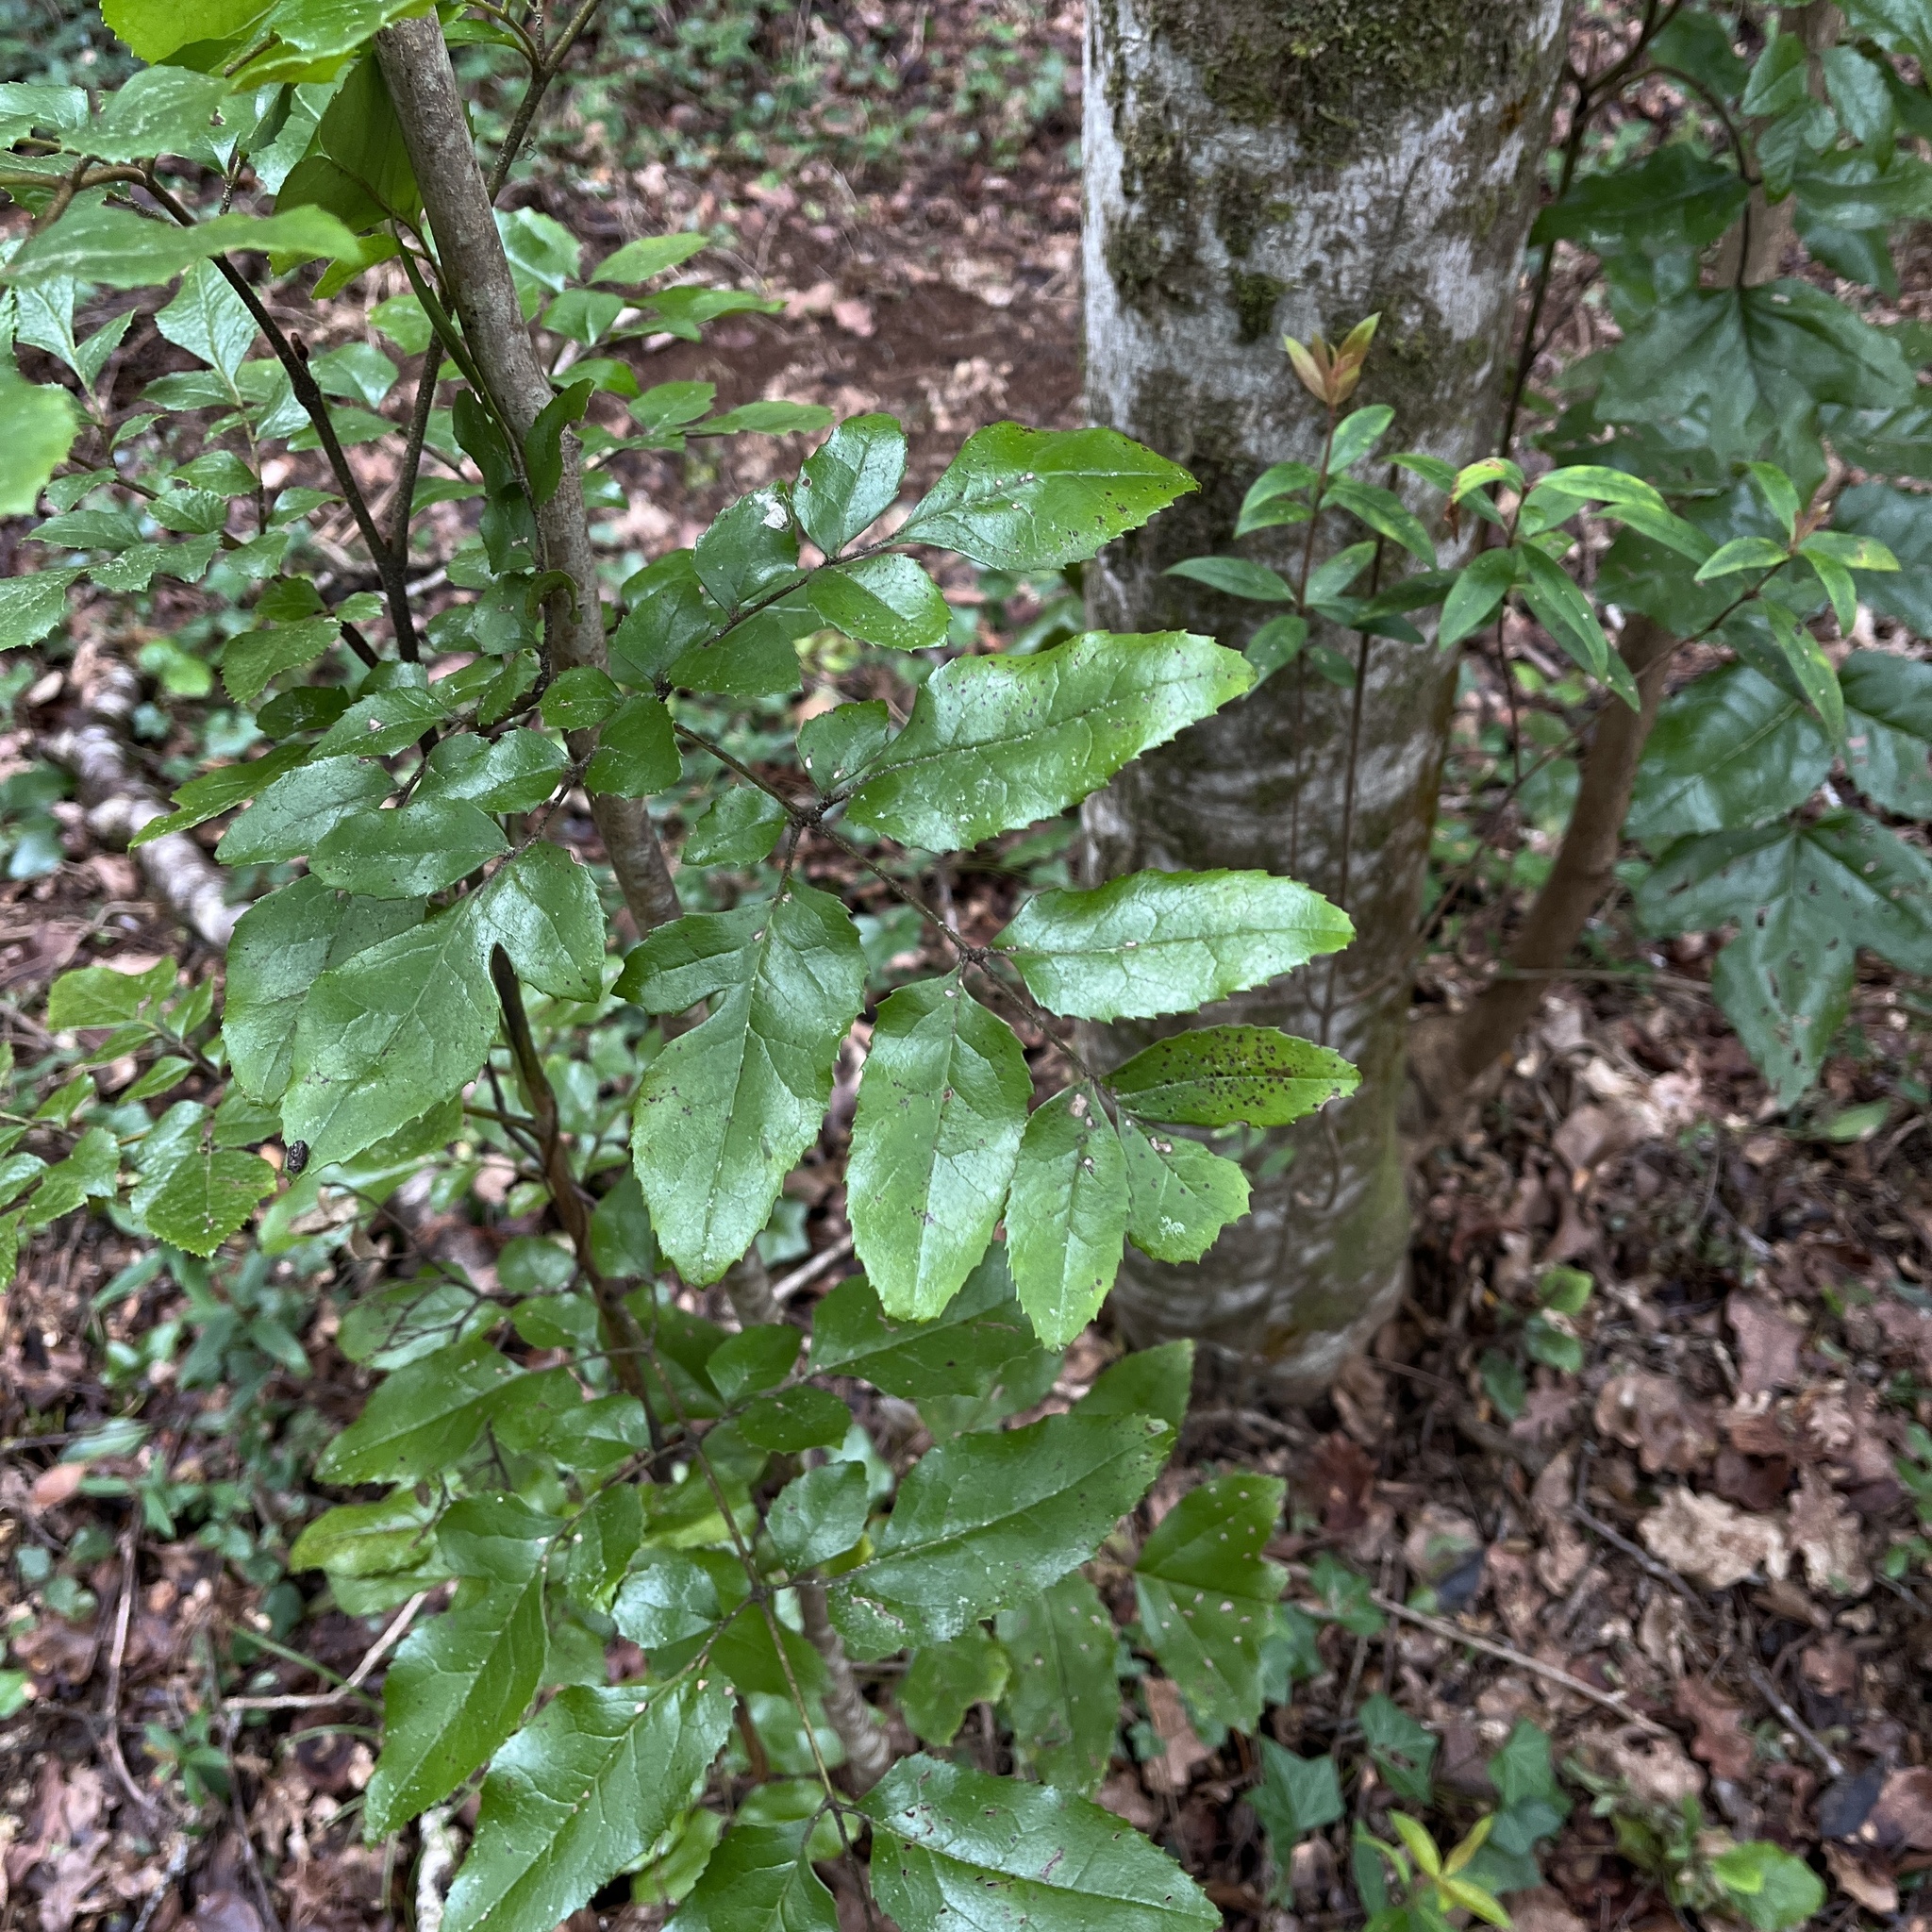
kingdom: Plantae
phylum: Tracheophyta
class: Magnoliopsida
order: Proteales
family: Proteaceae
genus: Gevuina
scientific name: Gevuina avellana
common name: Chilean hazel
